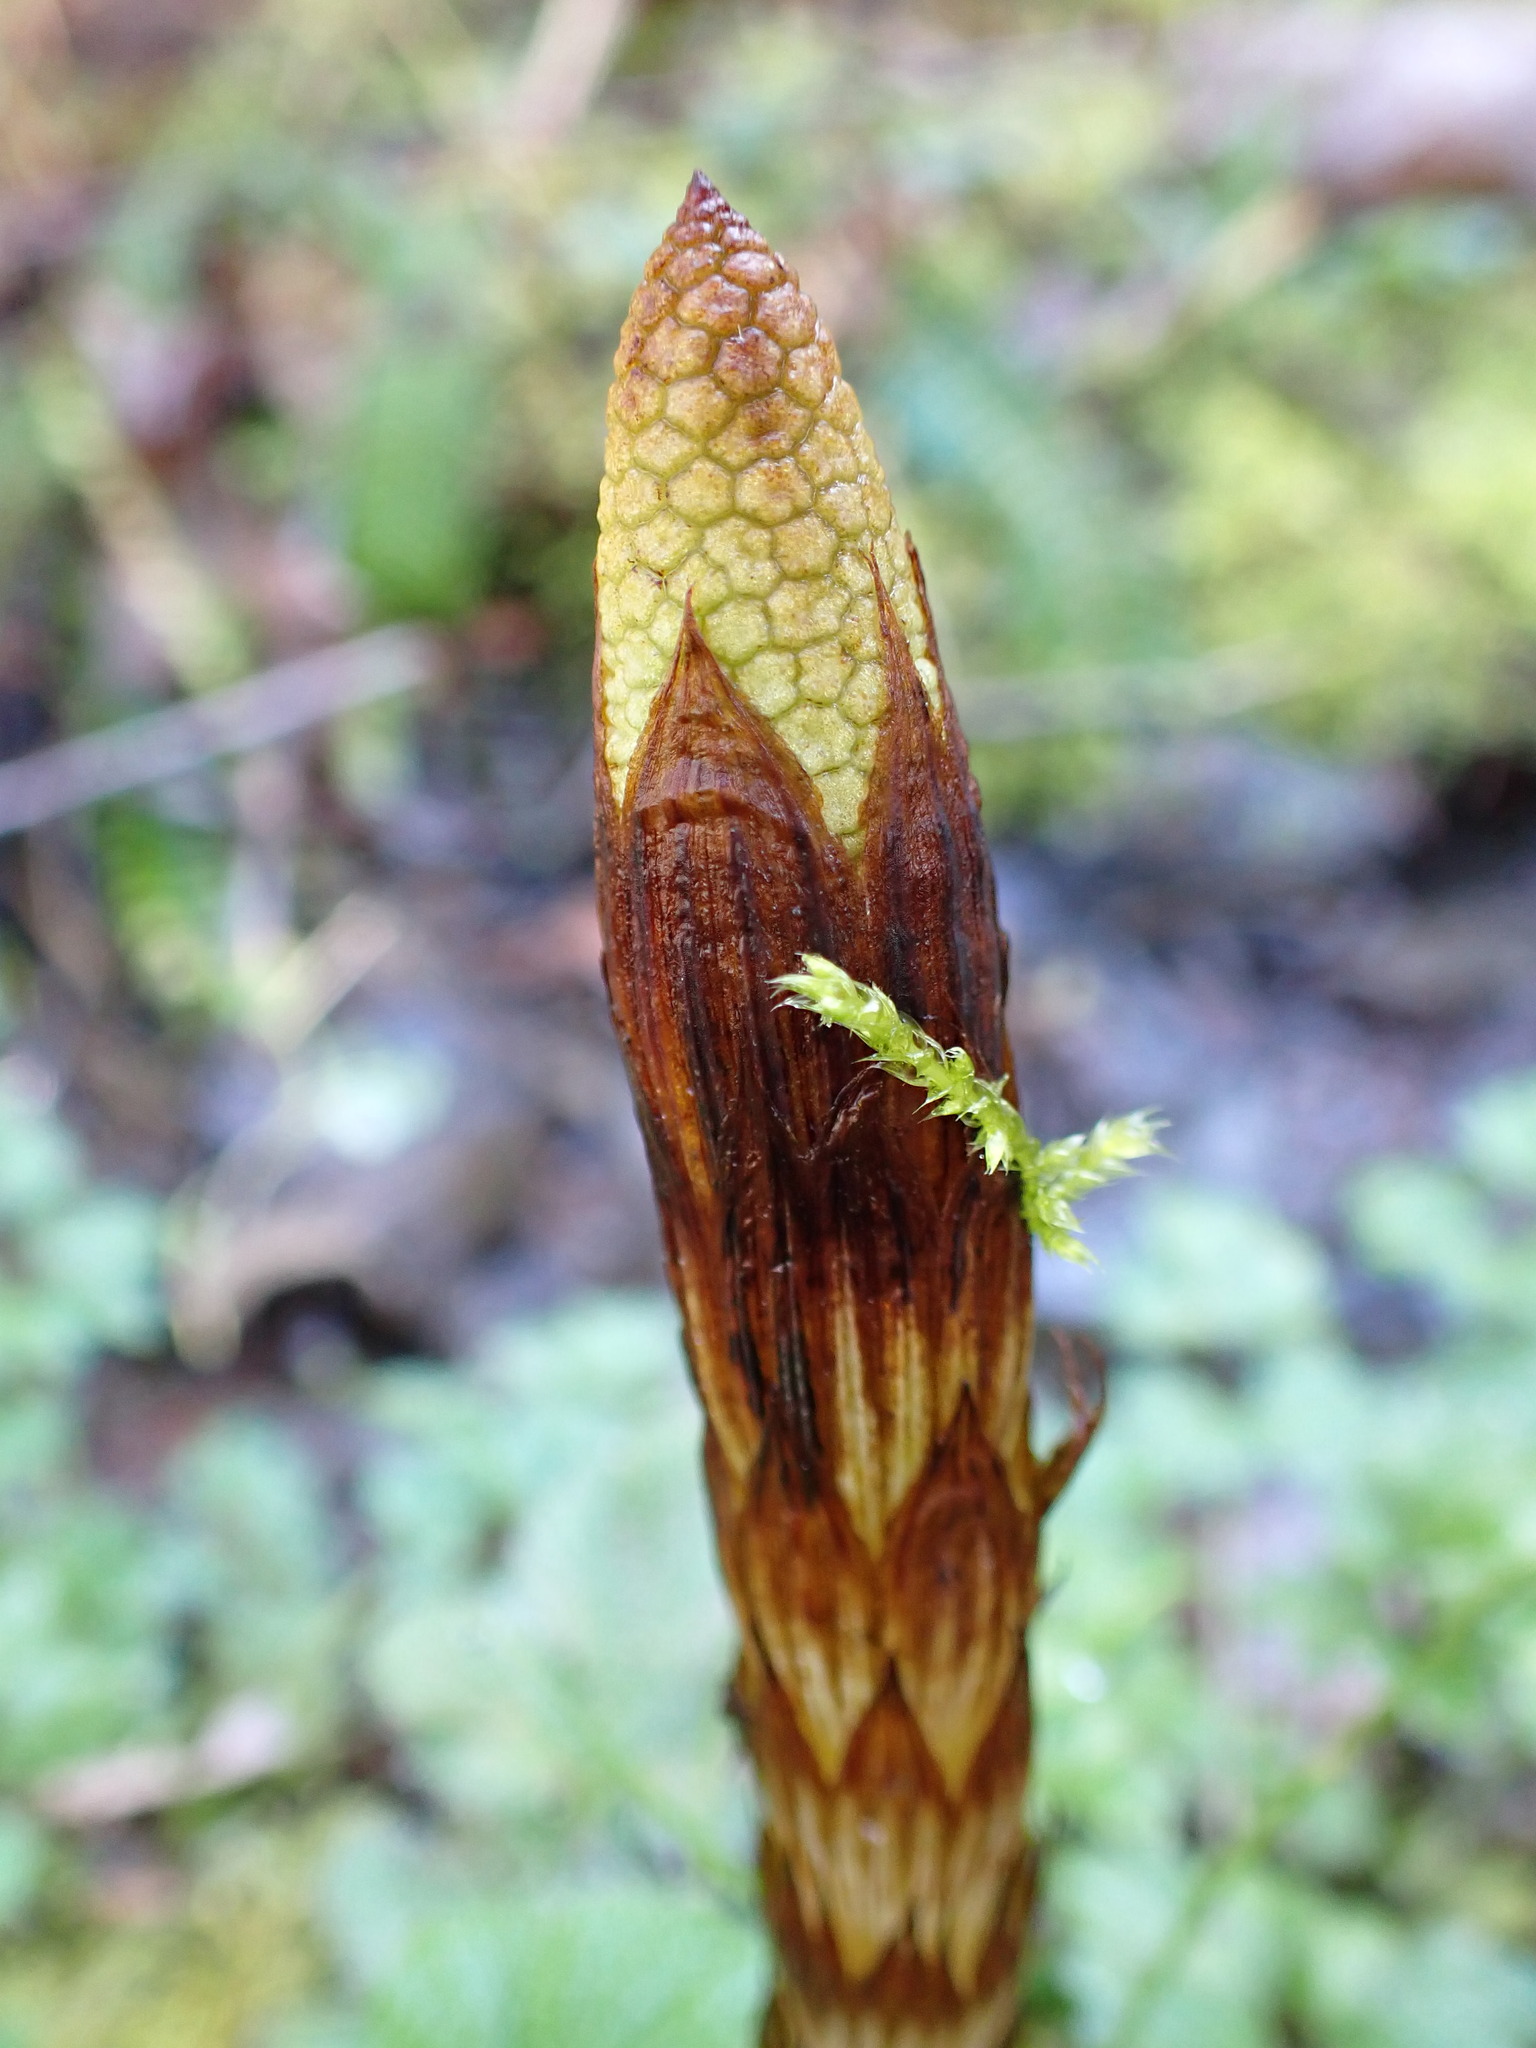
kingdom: Plantae
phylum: Tracheophyta
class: Polypodiopsida
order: Equisetales
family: Equisetaceae
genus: Equisetum
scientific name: Equisetum braunii
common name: Braun's horsetail
